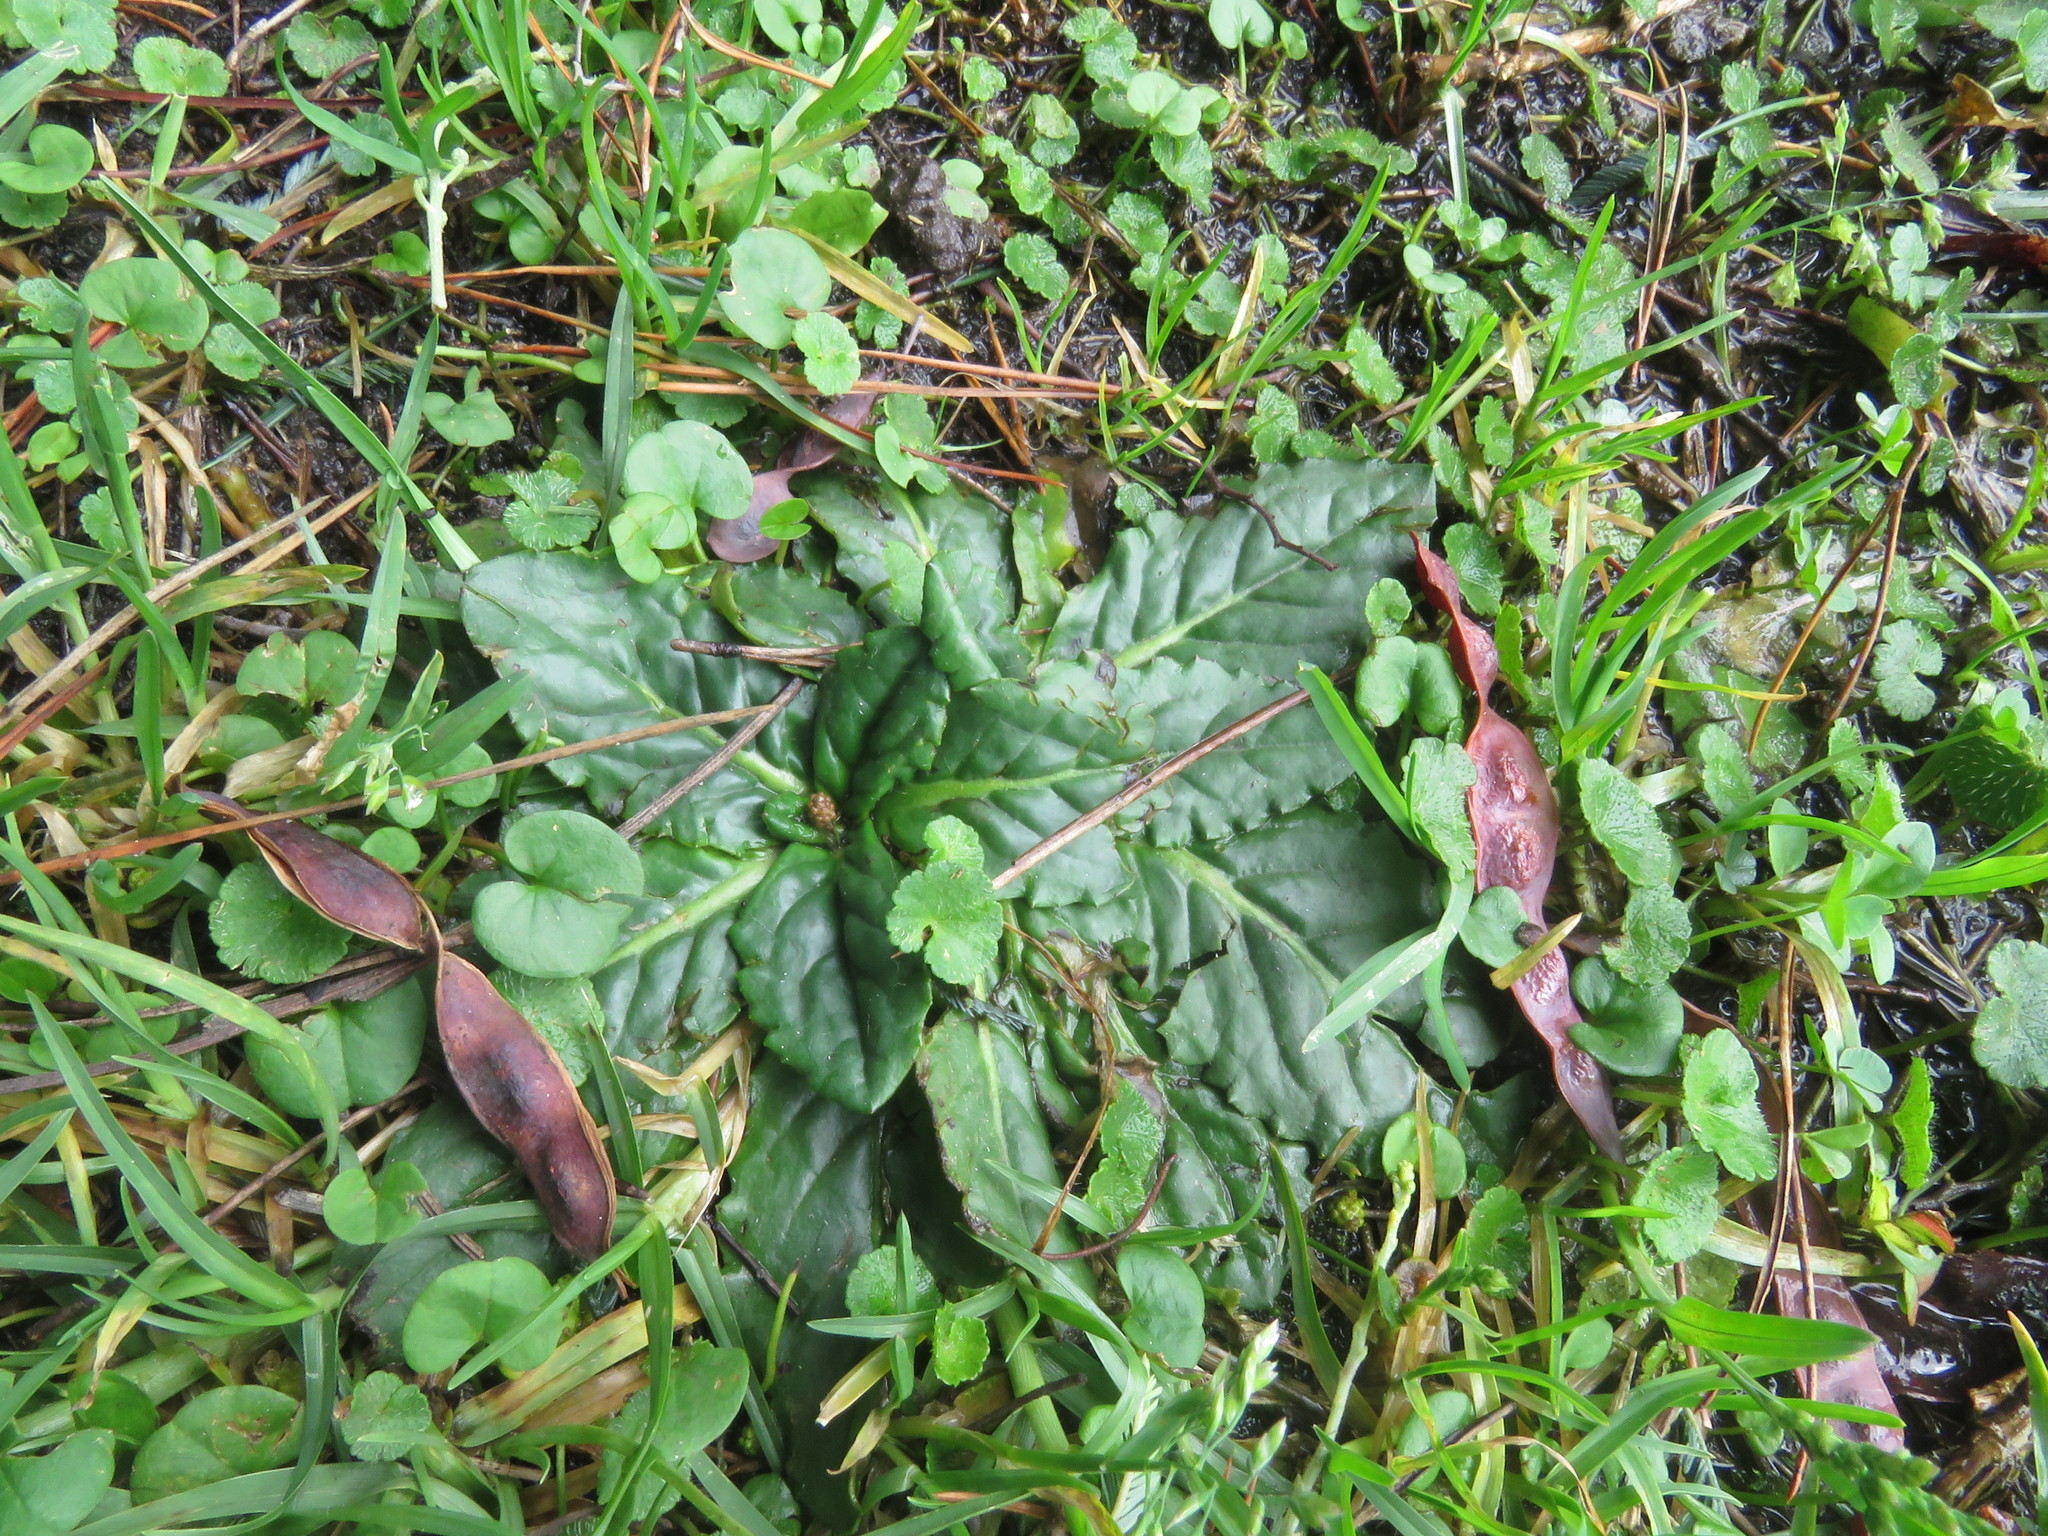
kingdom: Plantae
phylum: Tracheophyta
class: Magnoliopsida
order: Asterales
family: Asteraceae
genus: Chaptalia
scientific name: Chaptalia exscapa
